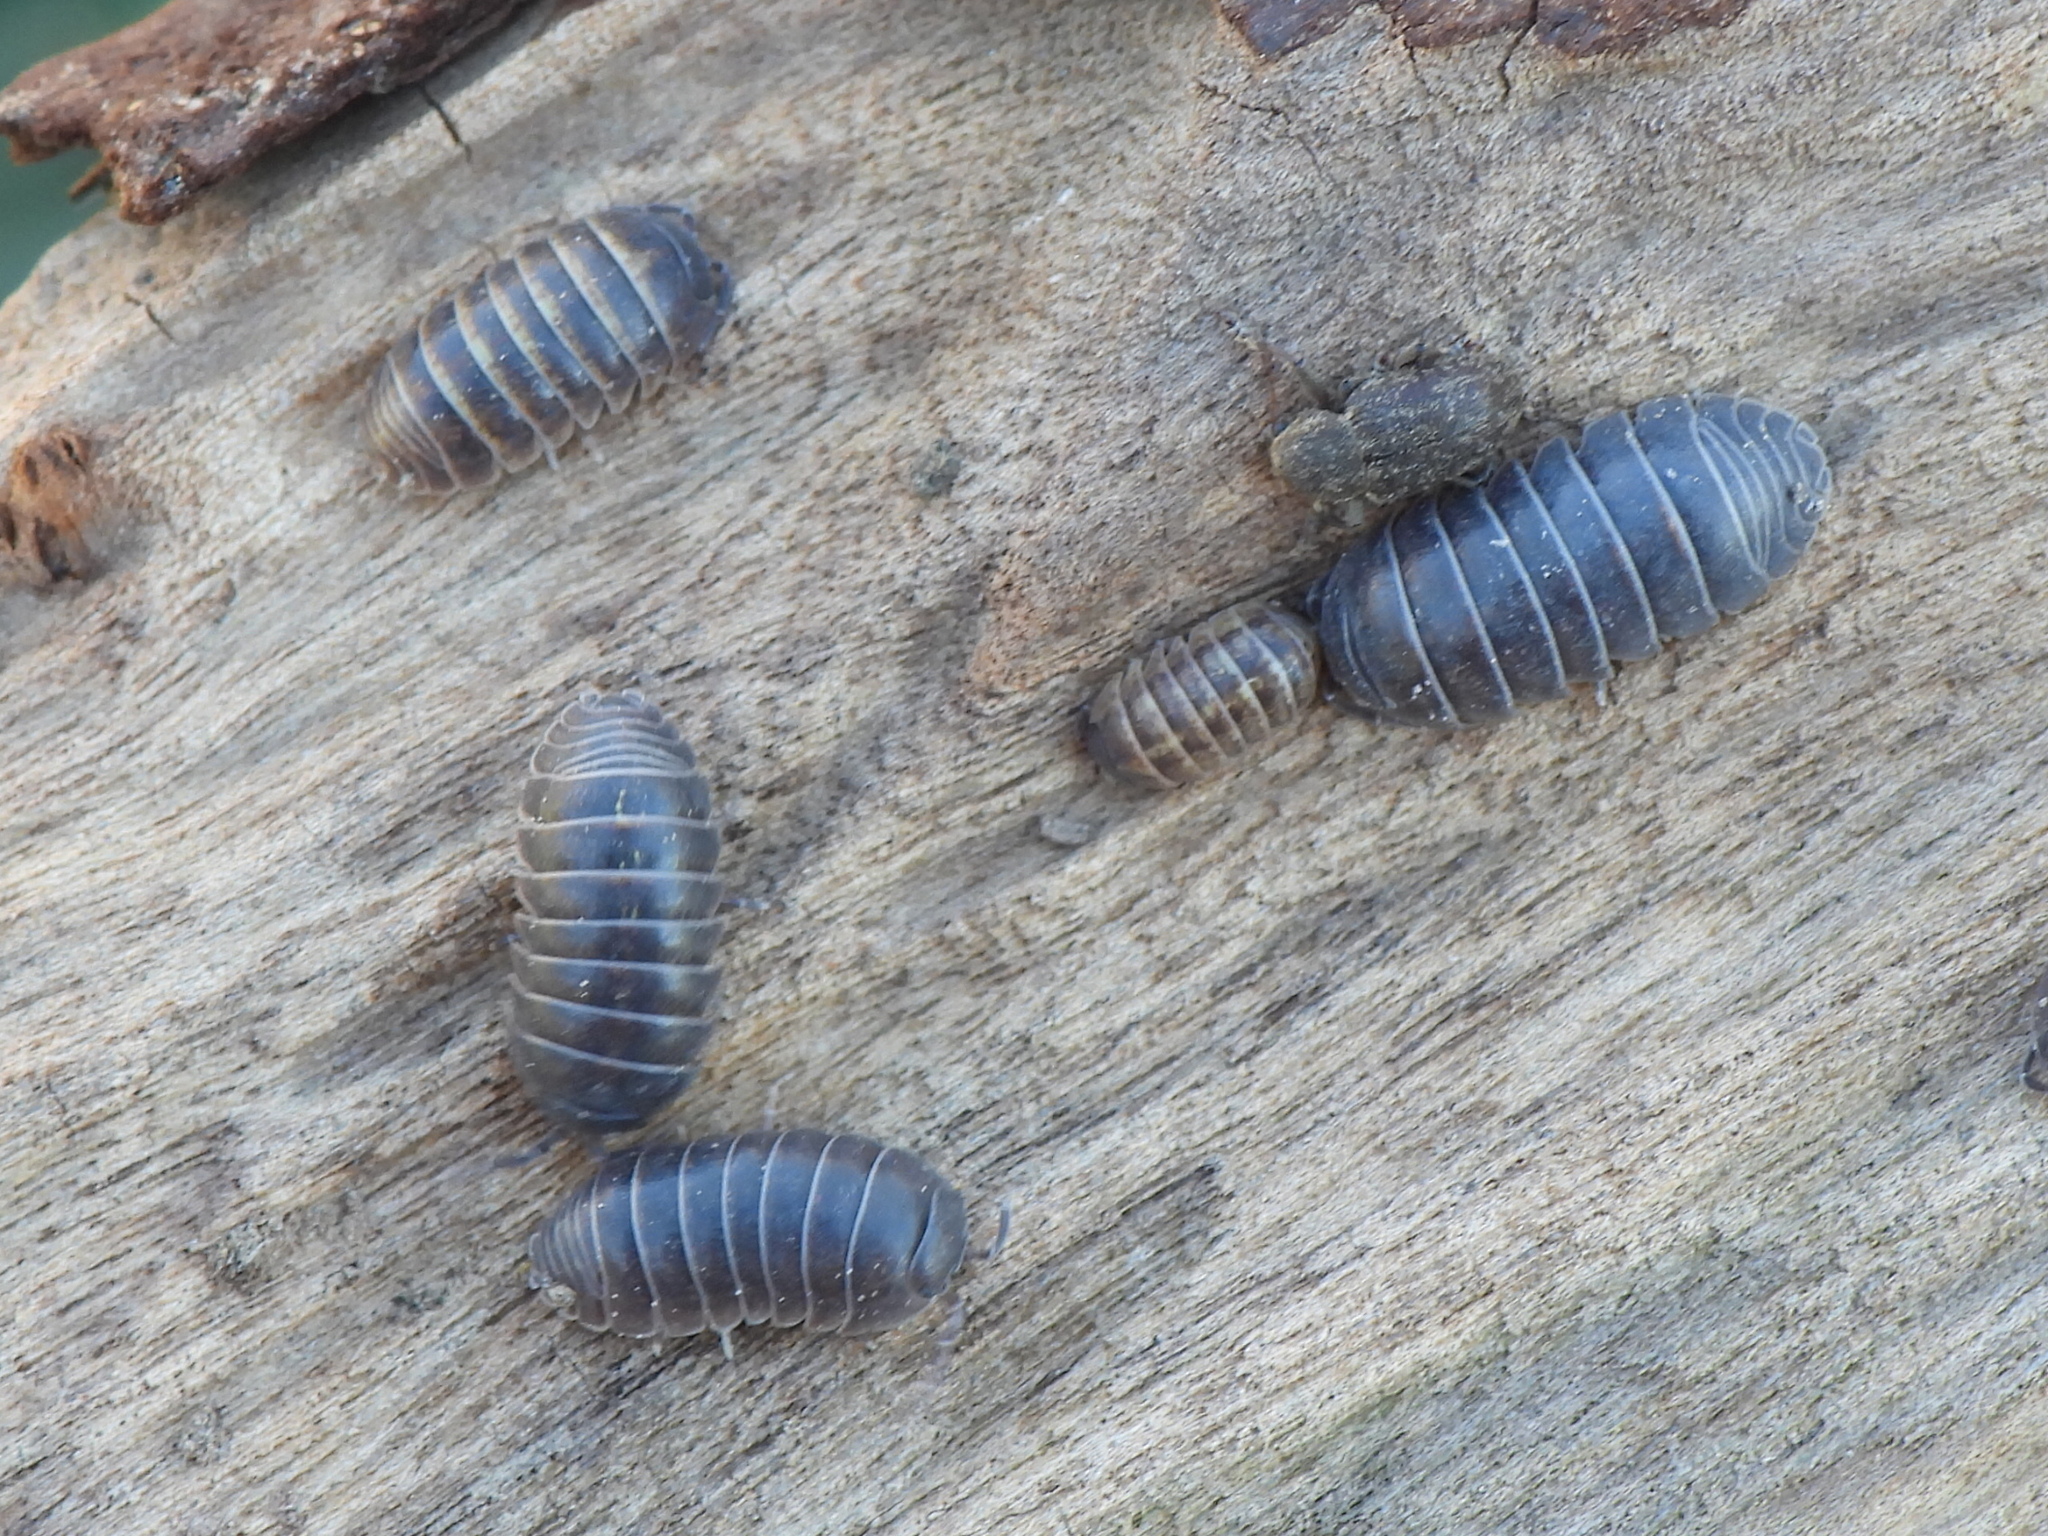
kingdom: Animalia
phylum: Arthropoda
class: Malacostraca
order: Isopoda
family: Armadillidiidae
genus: Armadillidium
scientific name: Armadillidium vulgare
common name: Common pill woodlouse
